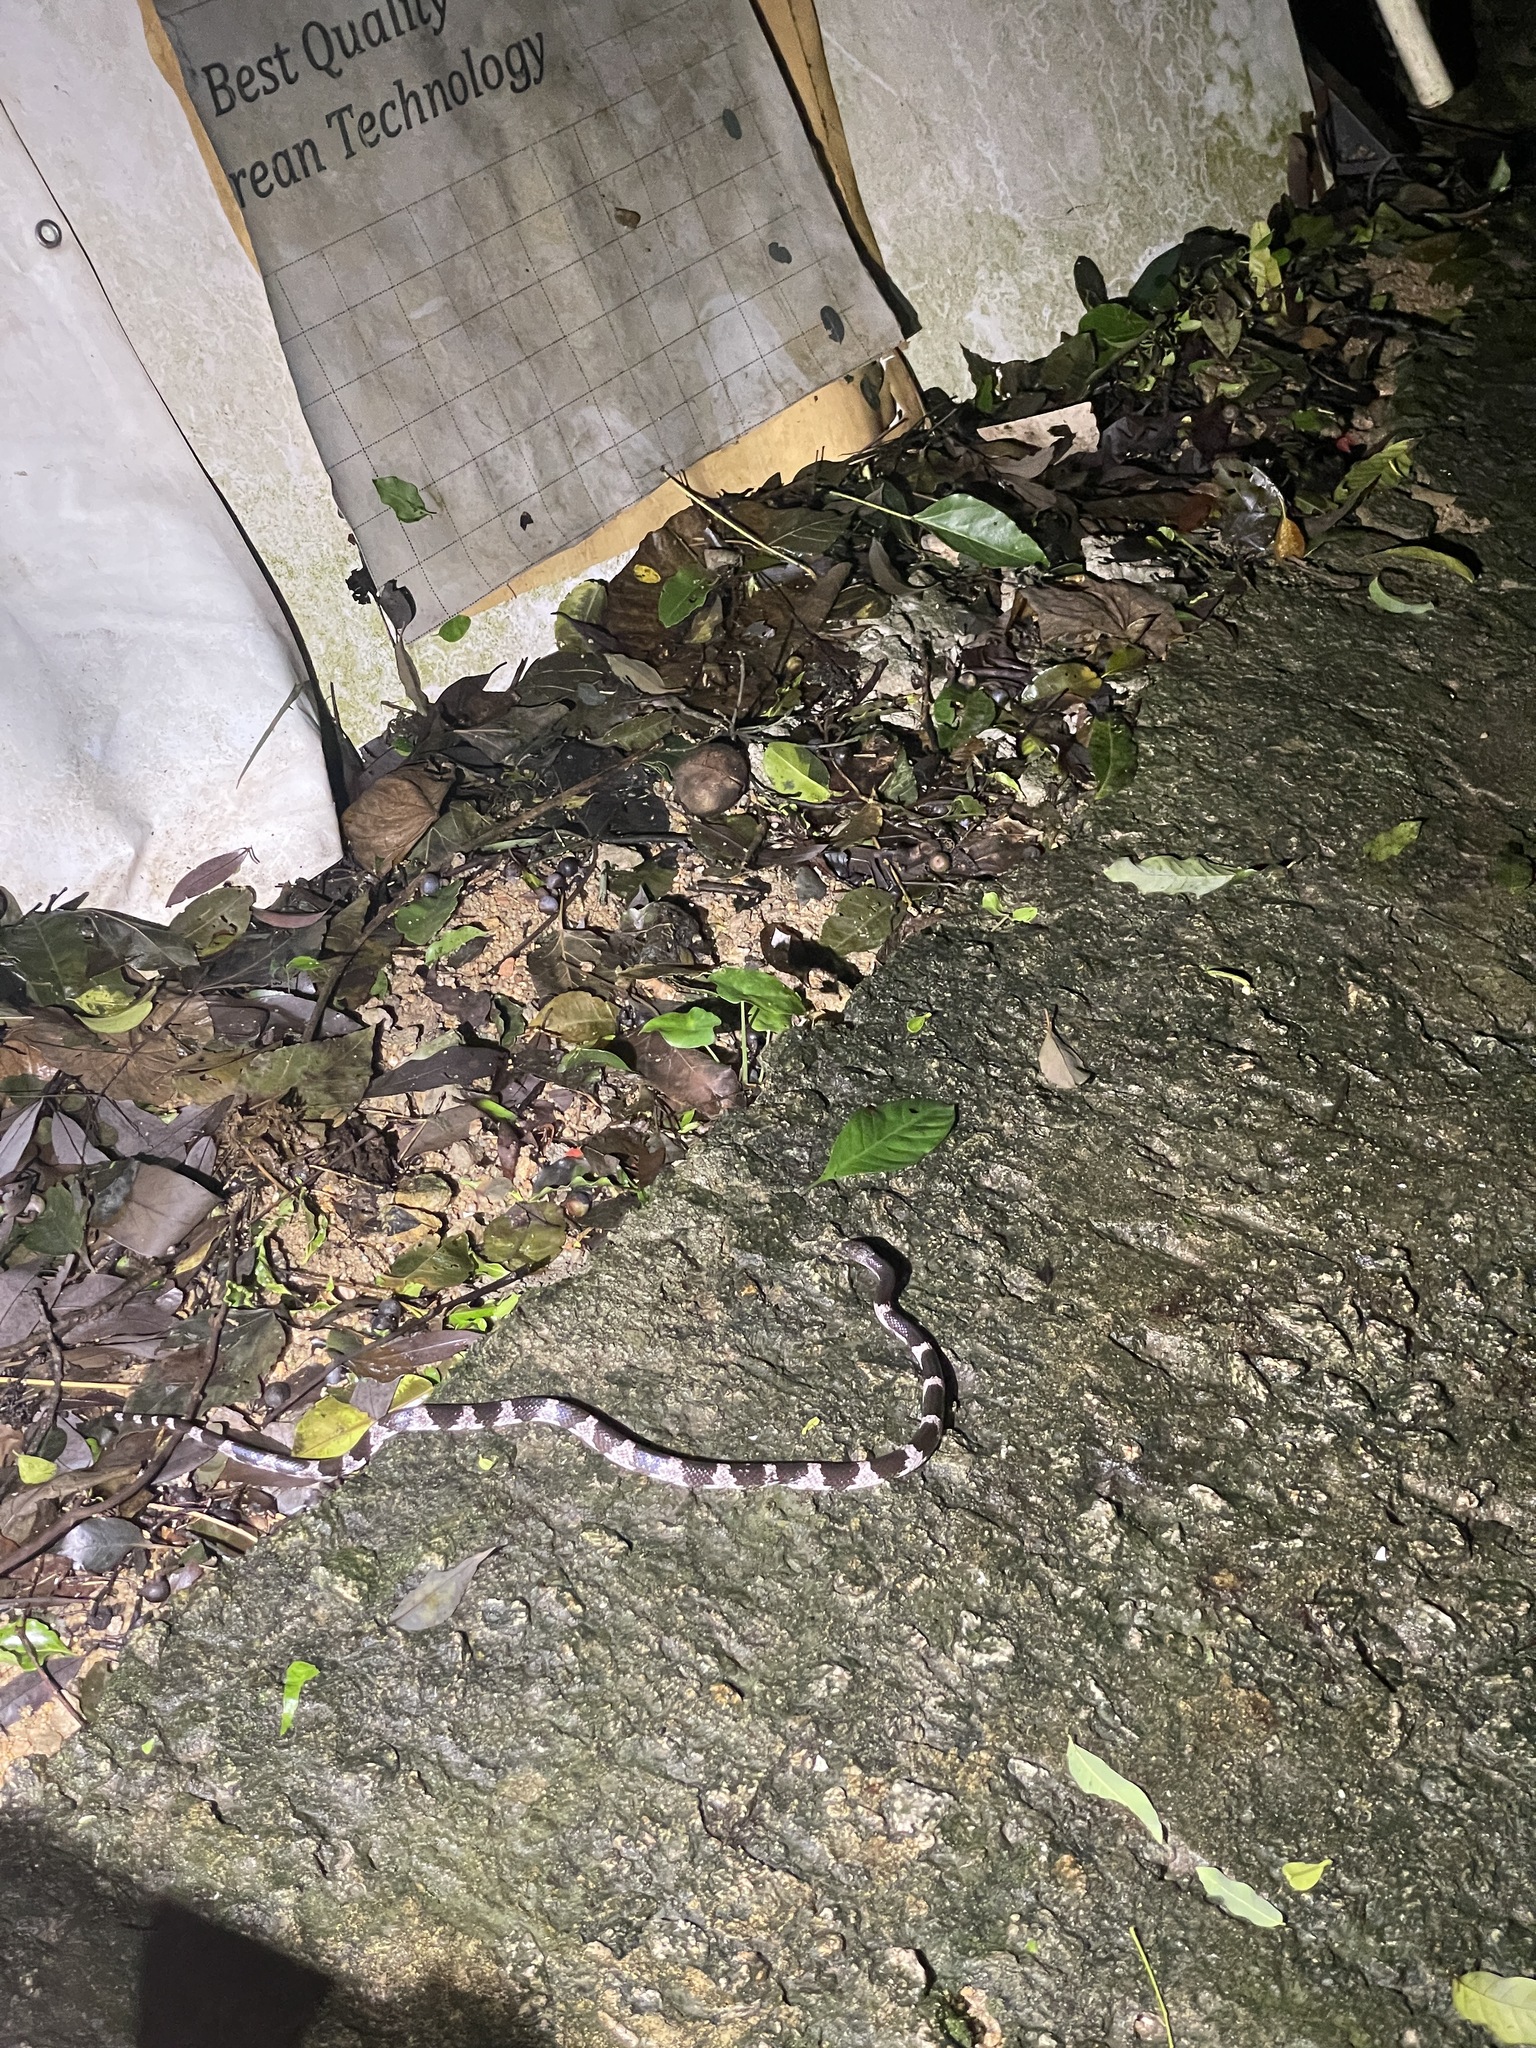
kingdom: Animalia
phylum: Chordata
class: Squamata
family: Colubridae
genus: Lycodon
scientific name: Lycodon futsingensis
